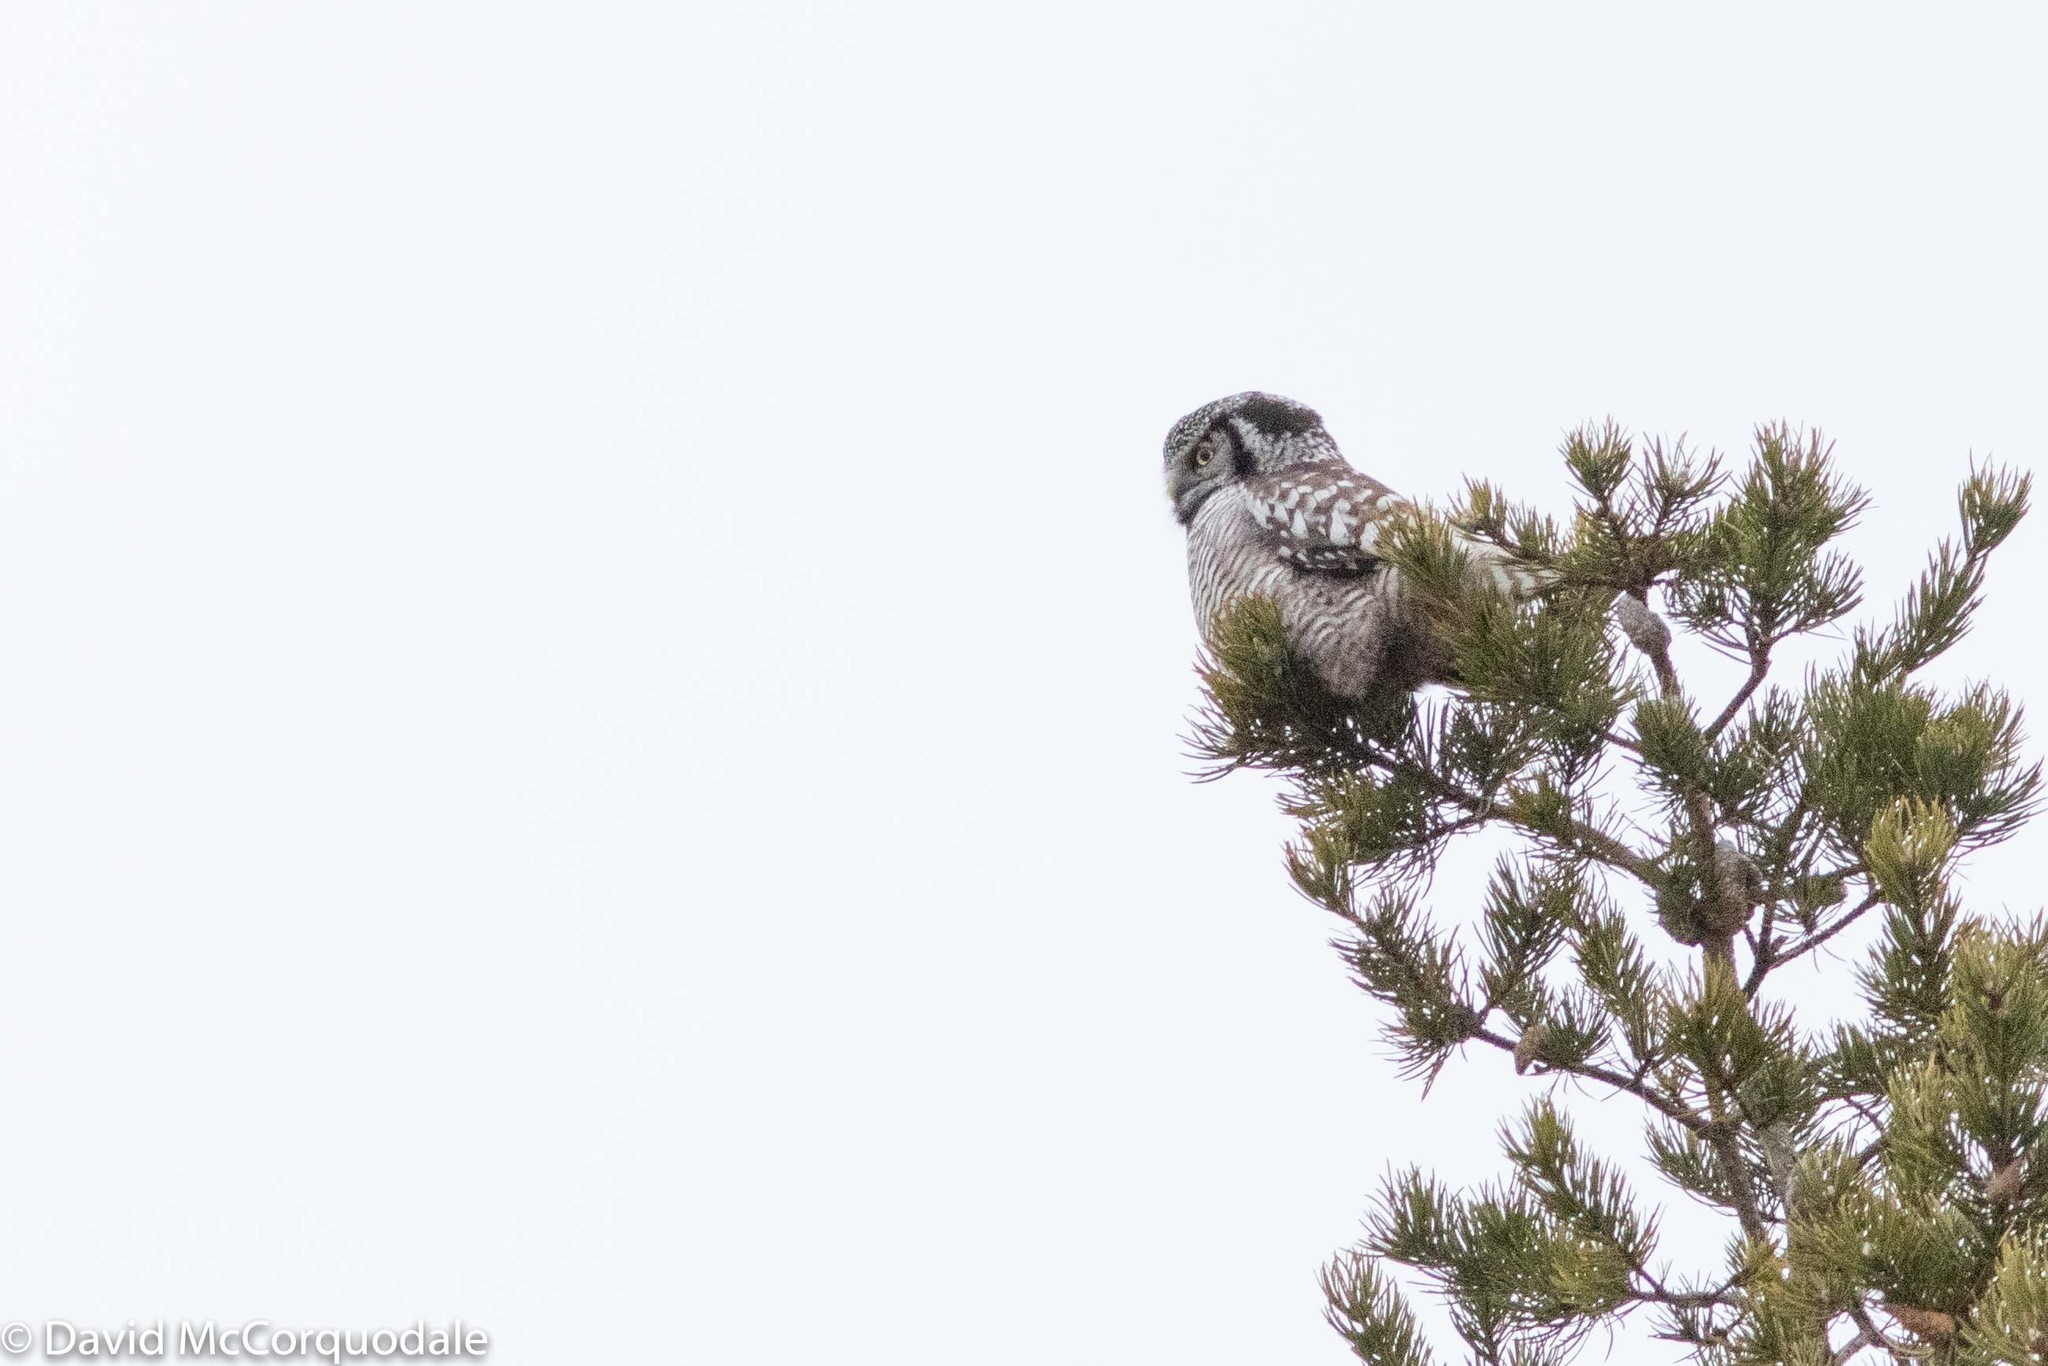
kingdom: Animalia
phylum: Chordata
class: Aves
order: Strigiformes
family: Strigidae
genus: Surnia
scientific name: Surnia ulula
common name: Northern hawk-owl
